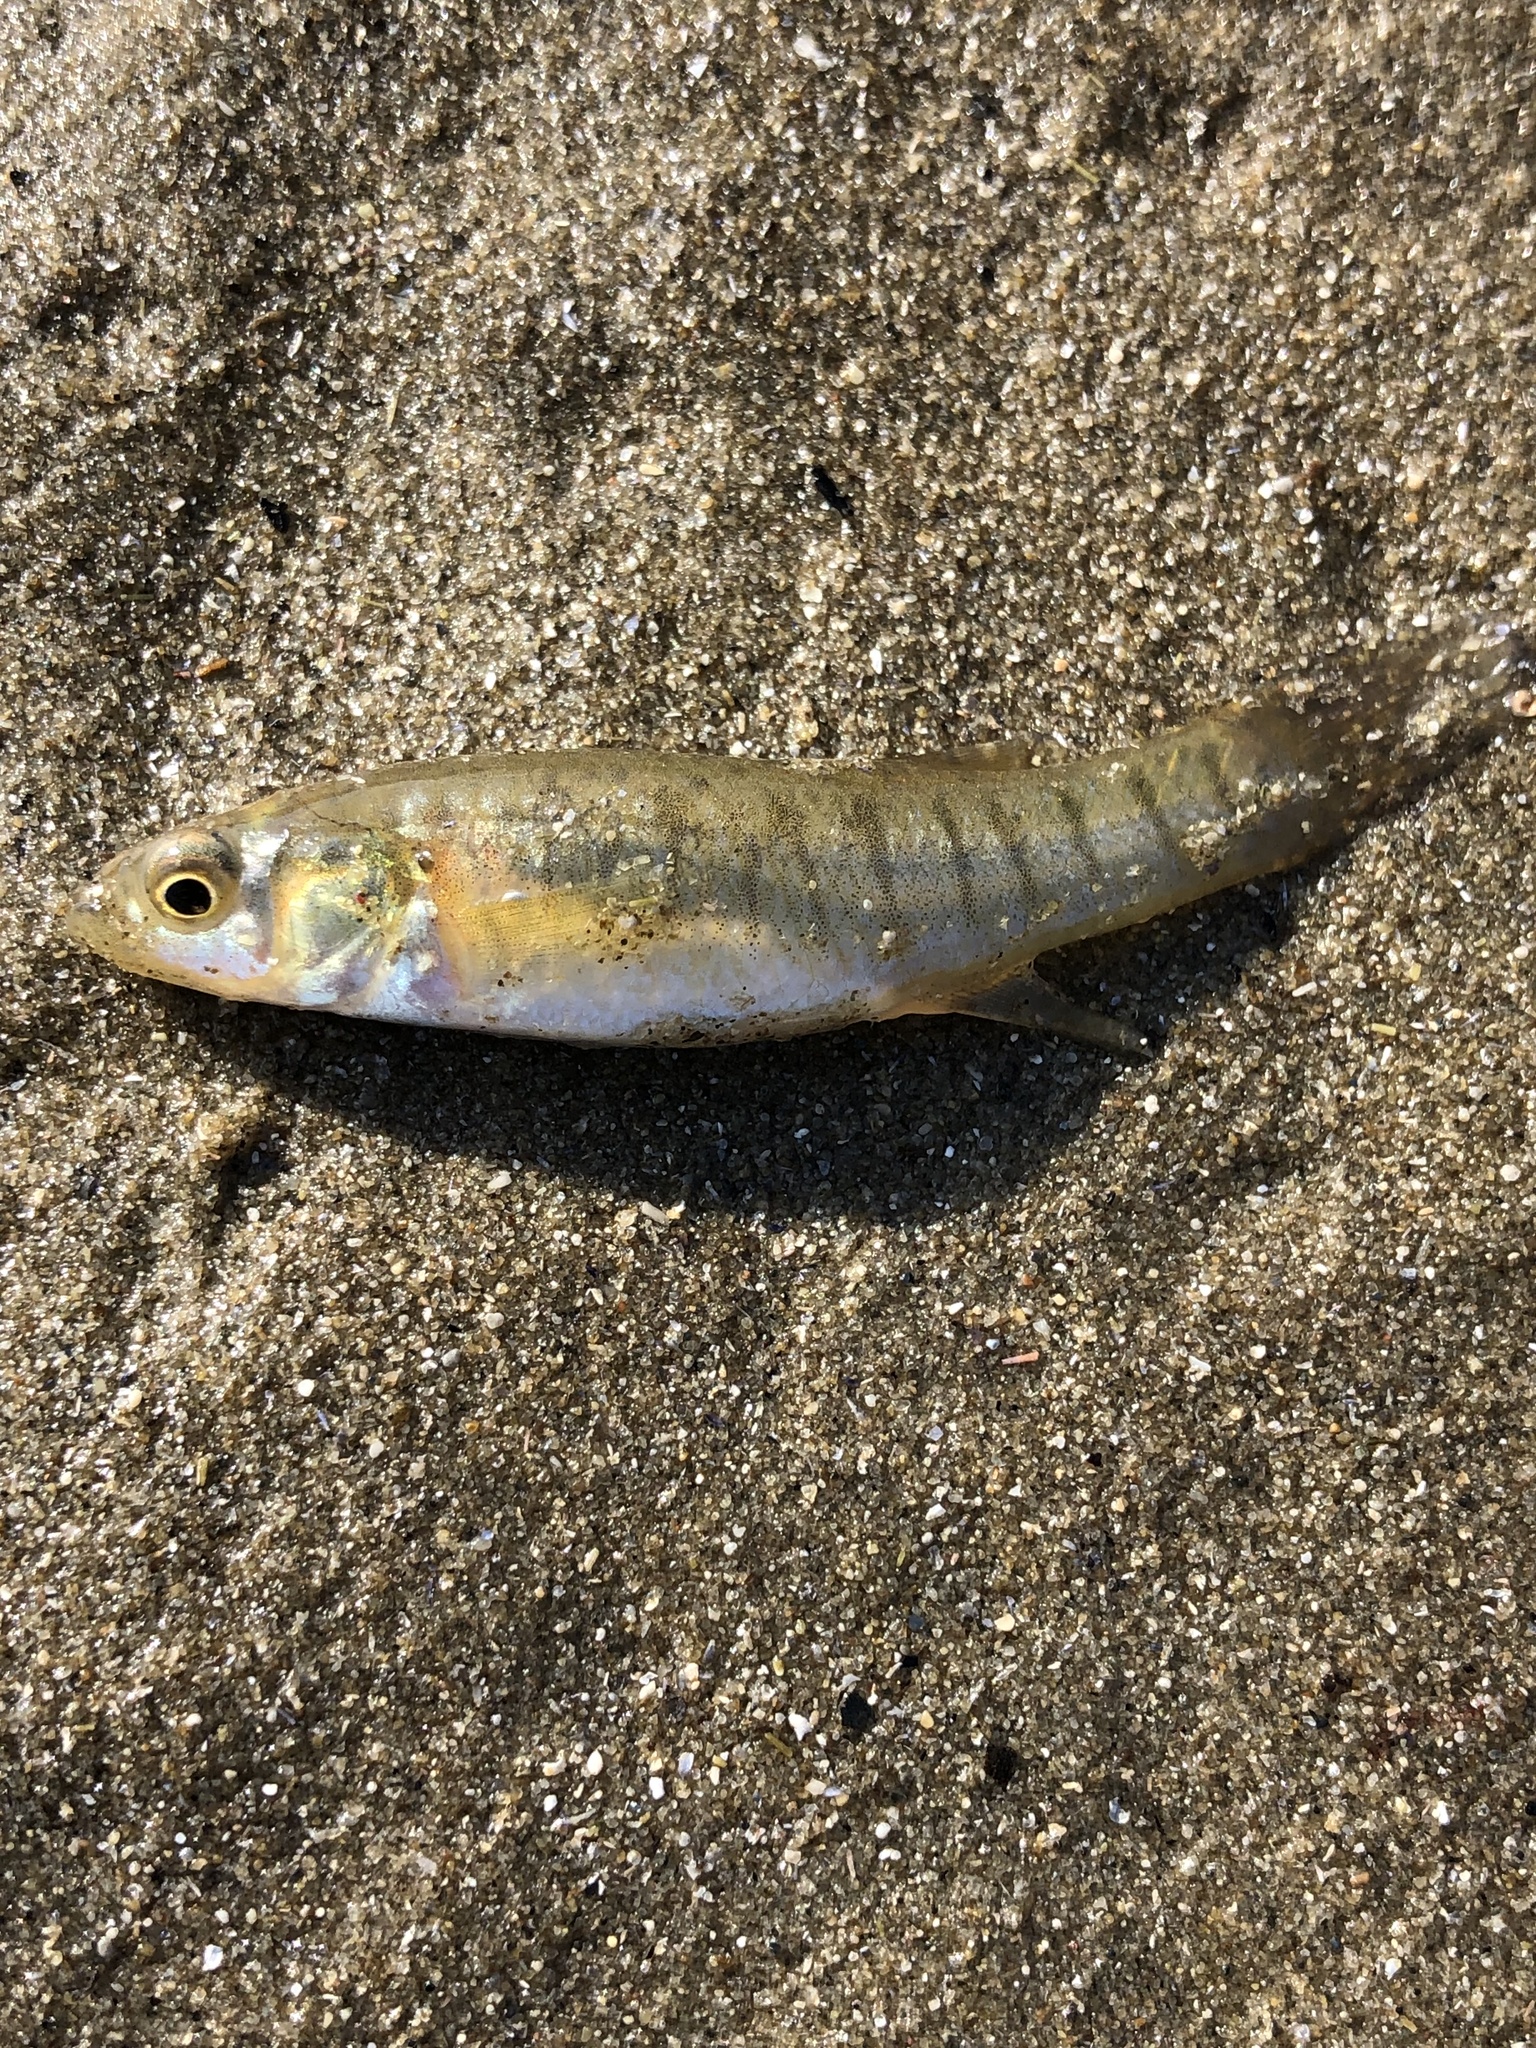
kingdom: Animalia
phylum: Chordata
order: Cyprinodontiformes
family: Fundulidae
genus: Fundulus
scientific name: Fundulus heteroclitus
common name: Mummichog
